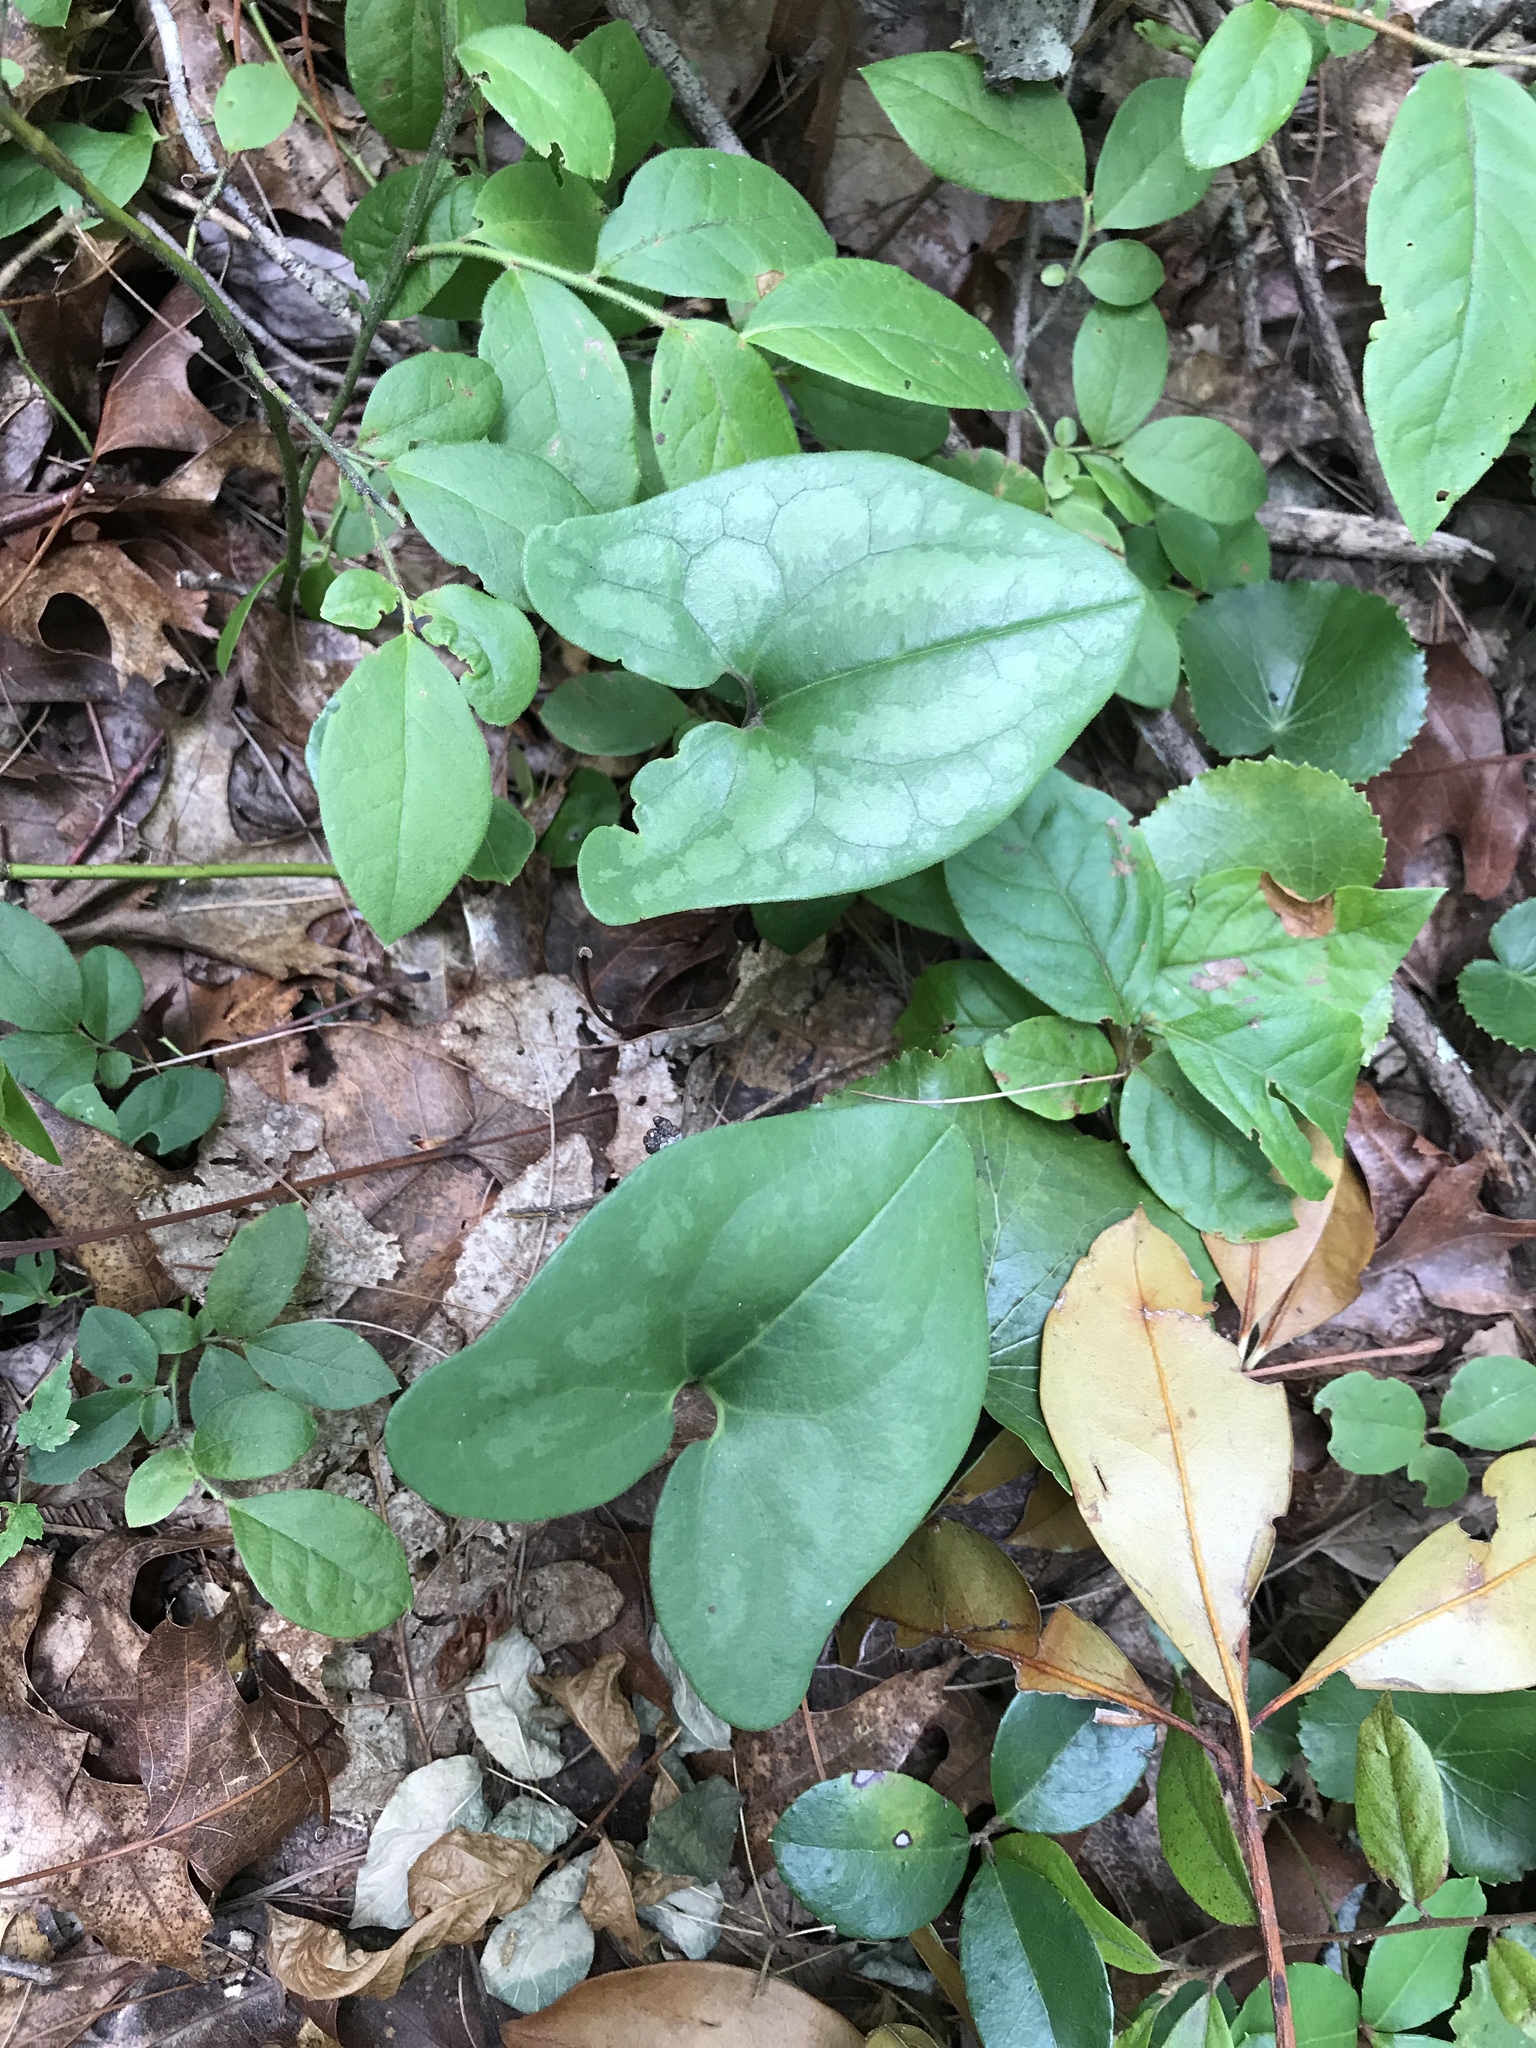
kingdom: Plantae
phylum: Tracheophyta
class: Magnoliopsida
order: Piperales
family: Aristolochiaceae
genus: Hexastylis
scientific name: Hexastylis arifolia
